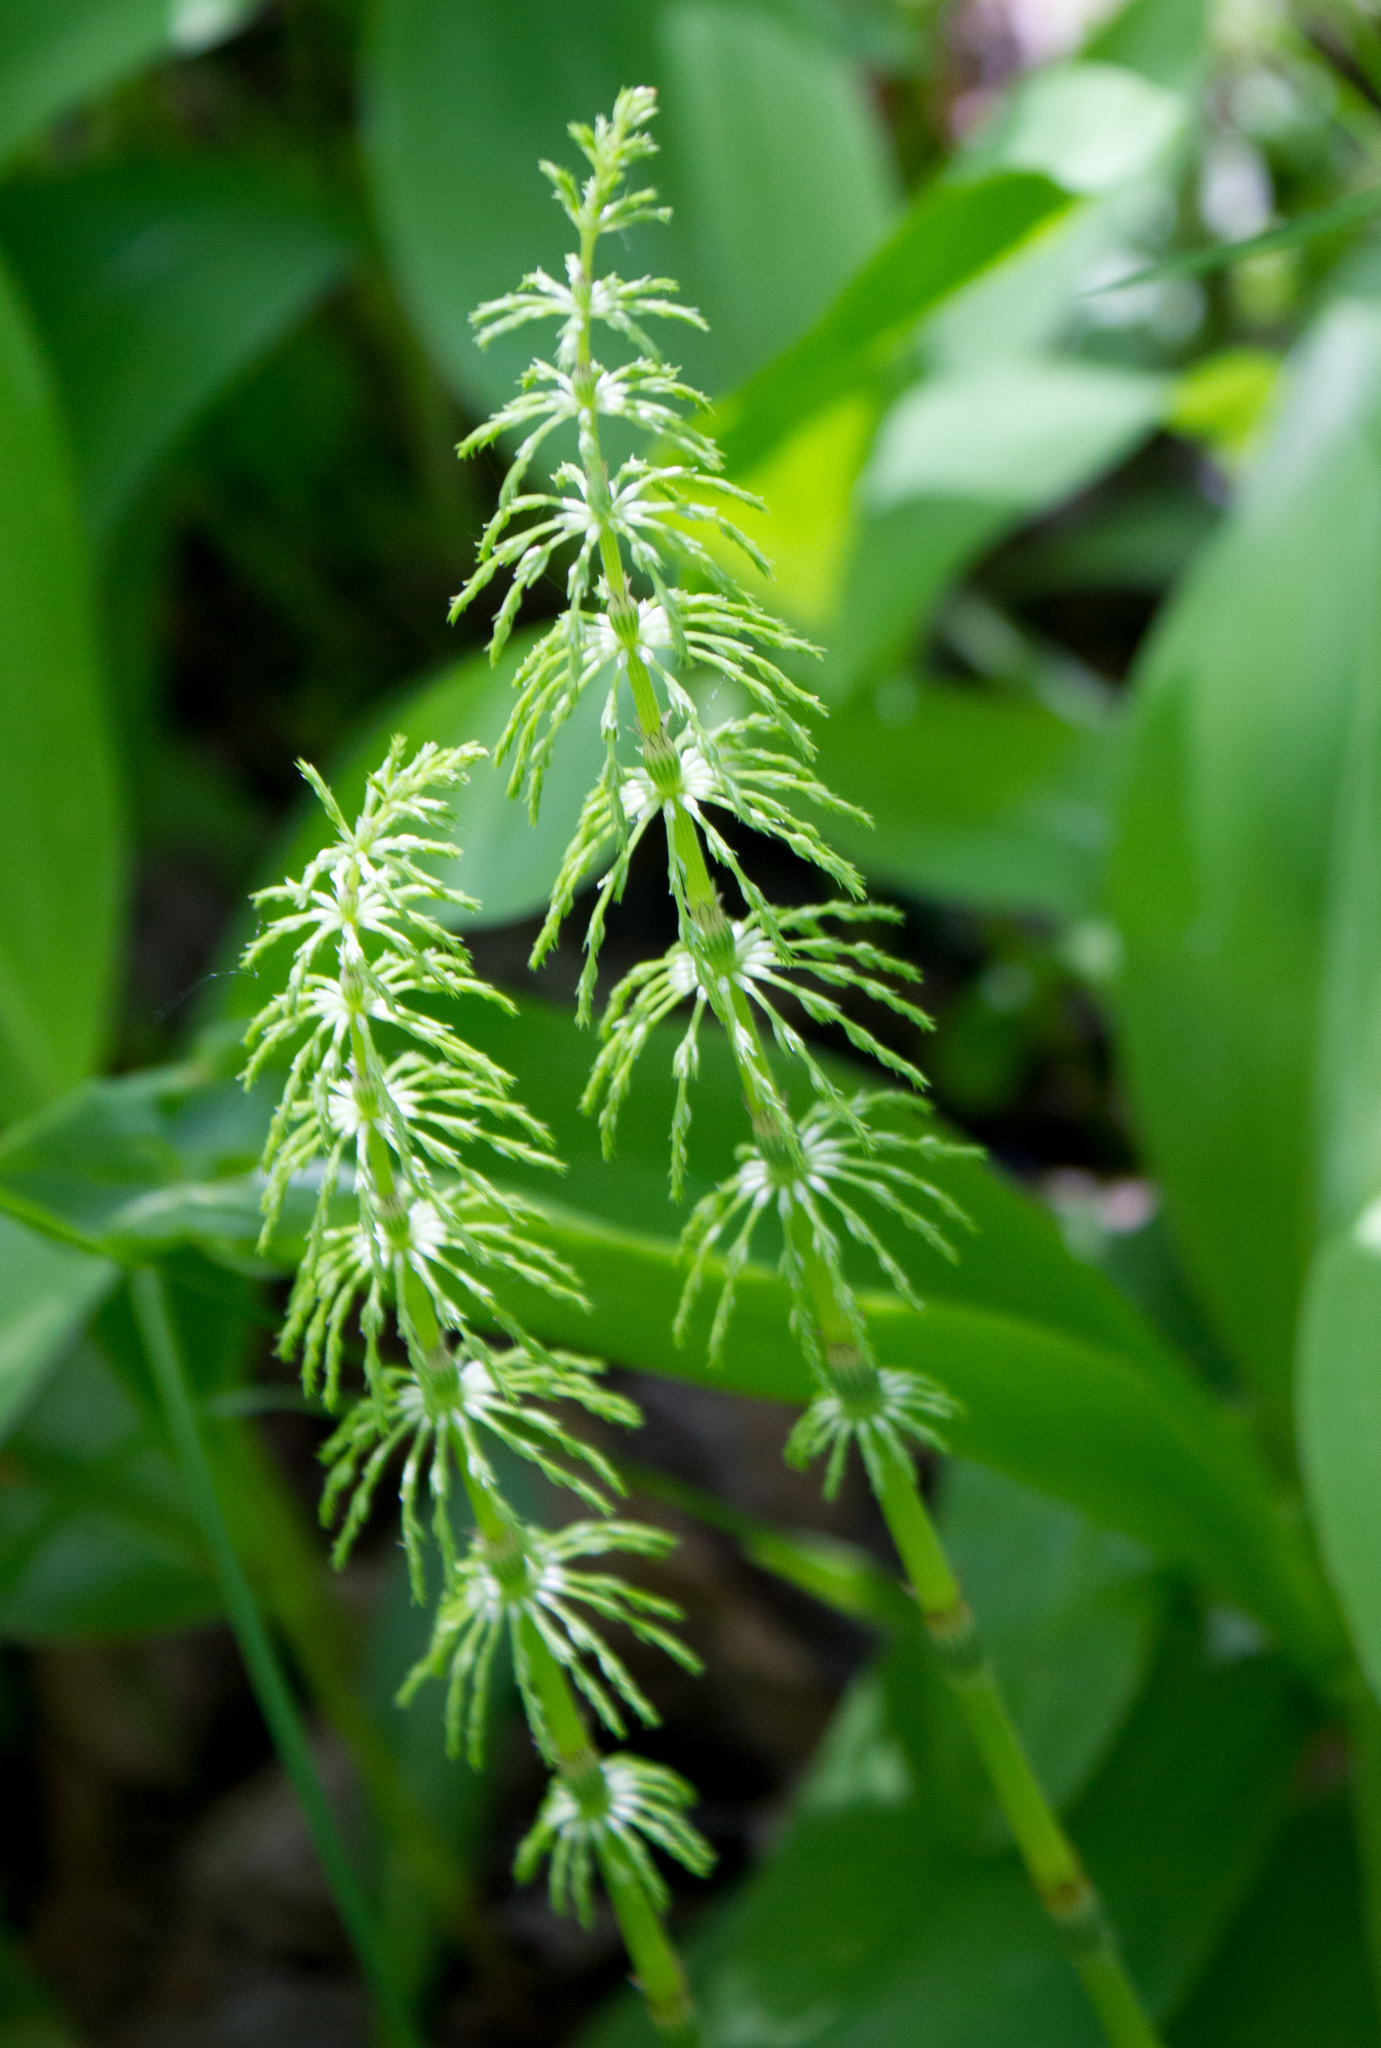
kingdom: Plantae
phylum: Tracheophyta
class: Polypodiopsida
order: Equisetales
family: Equisetaceae
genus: Equisetum
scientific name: Equisetum sylvaticum
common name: Wood horsetail
